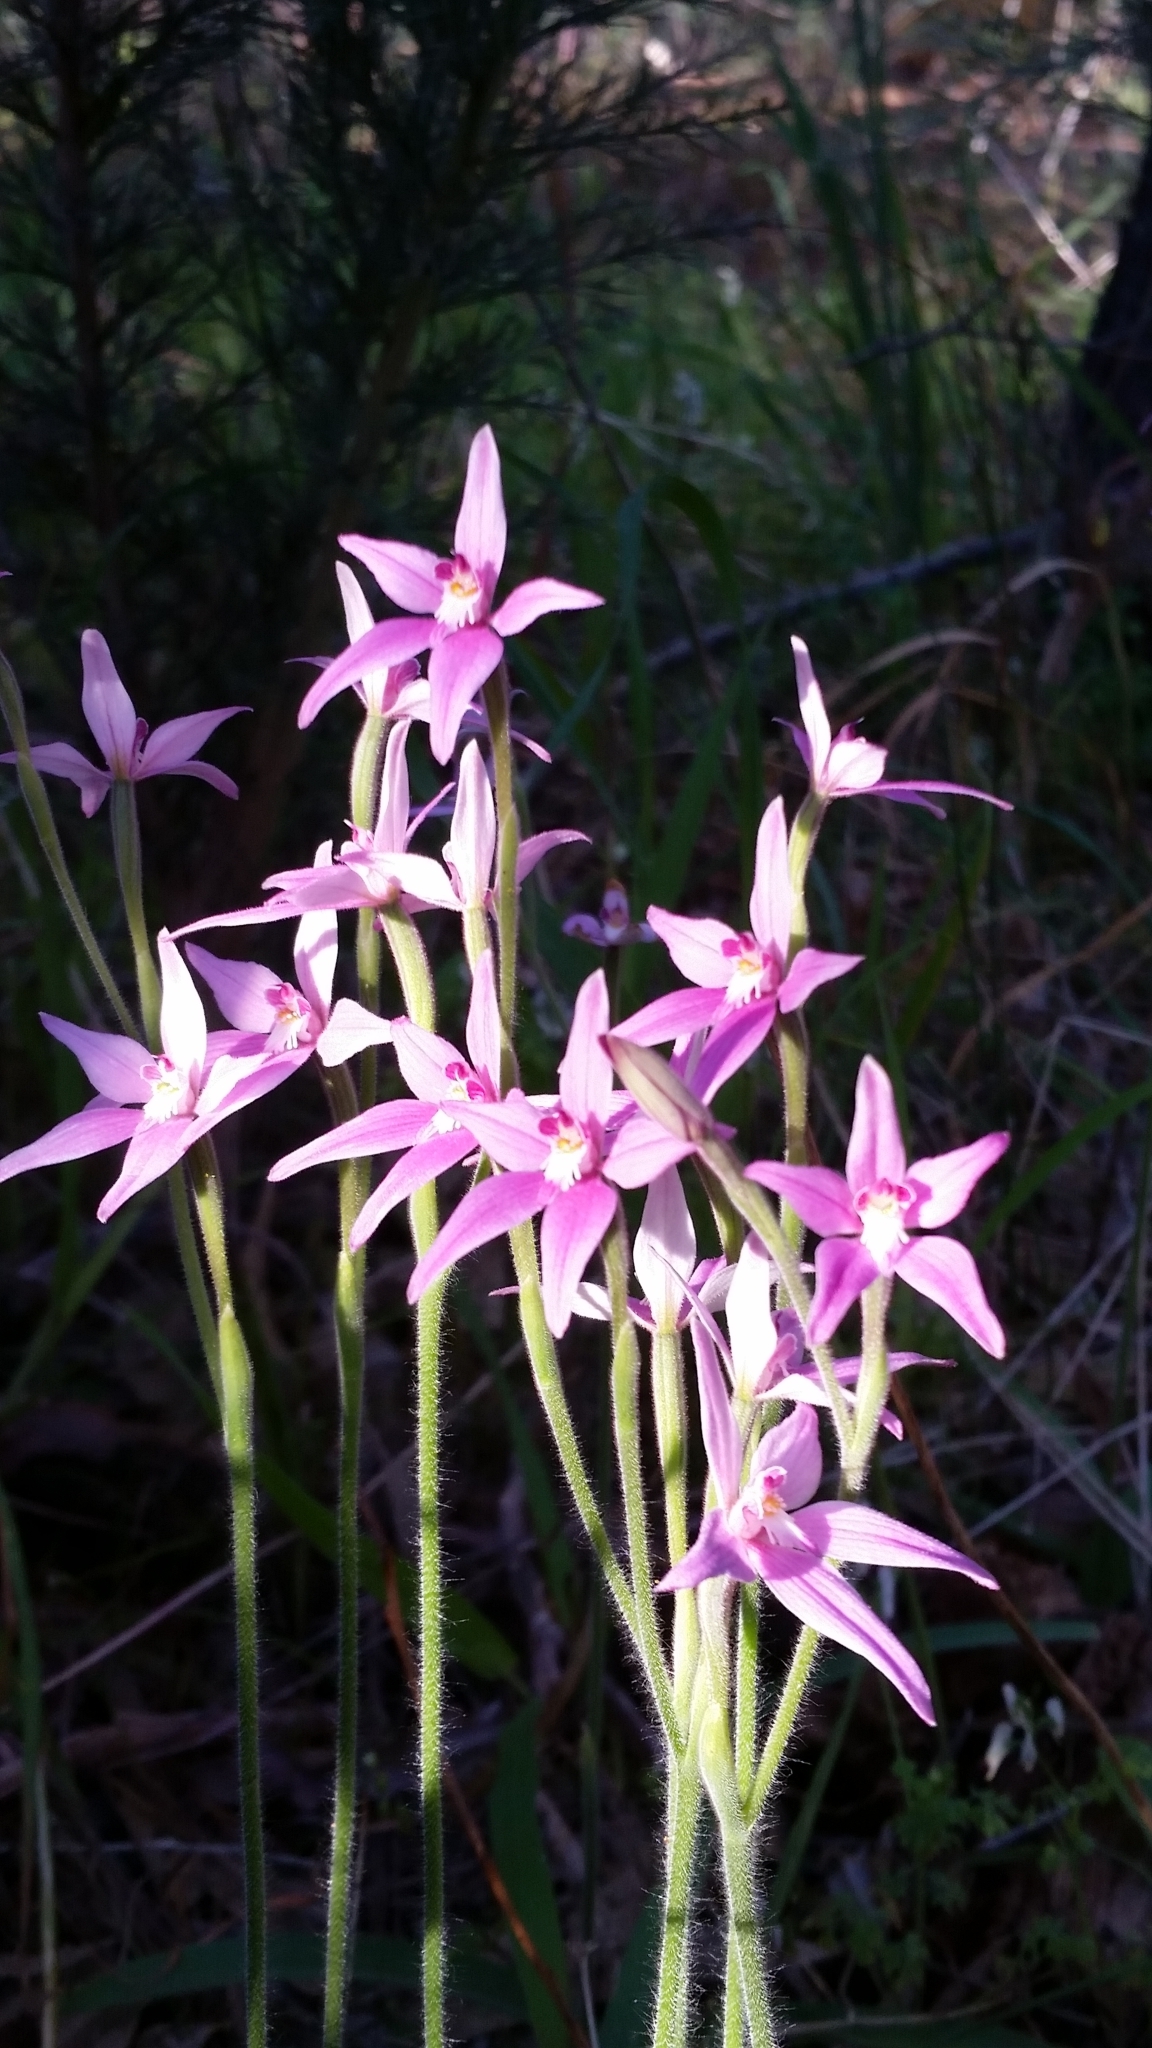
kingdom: Plantae
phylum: Tracheophyta
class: Liliopsida
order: Asparagales
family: Orchidaceae
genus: Caladenia
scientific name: Caladenia latifolia
